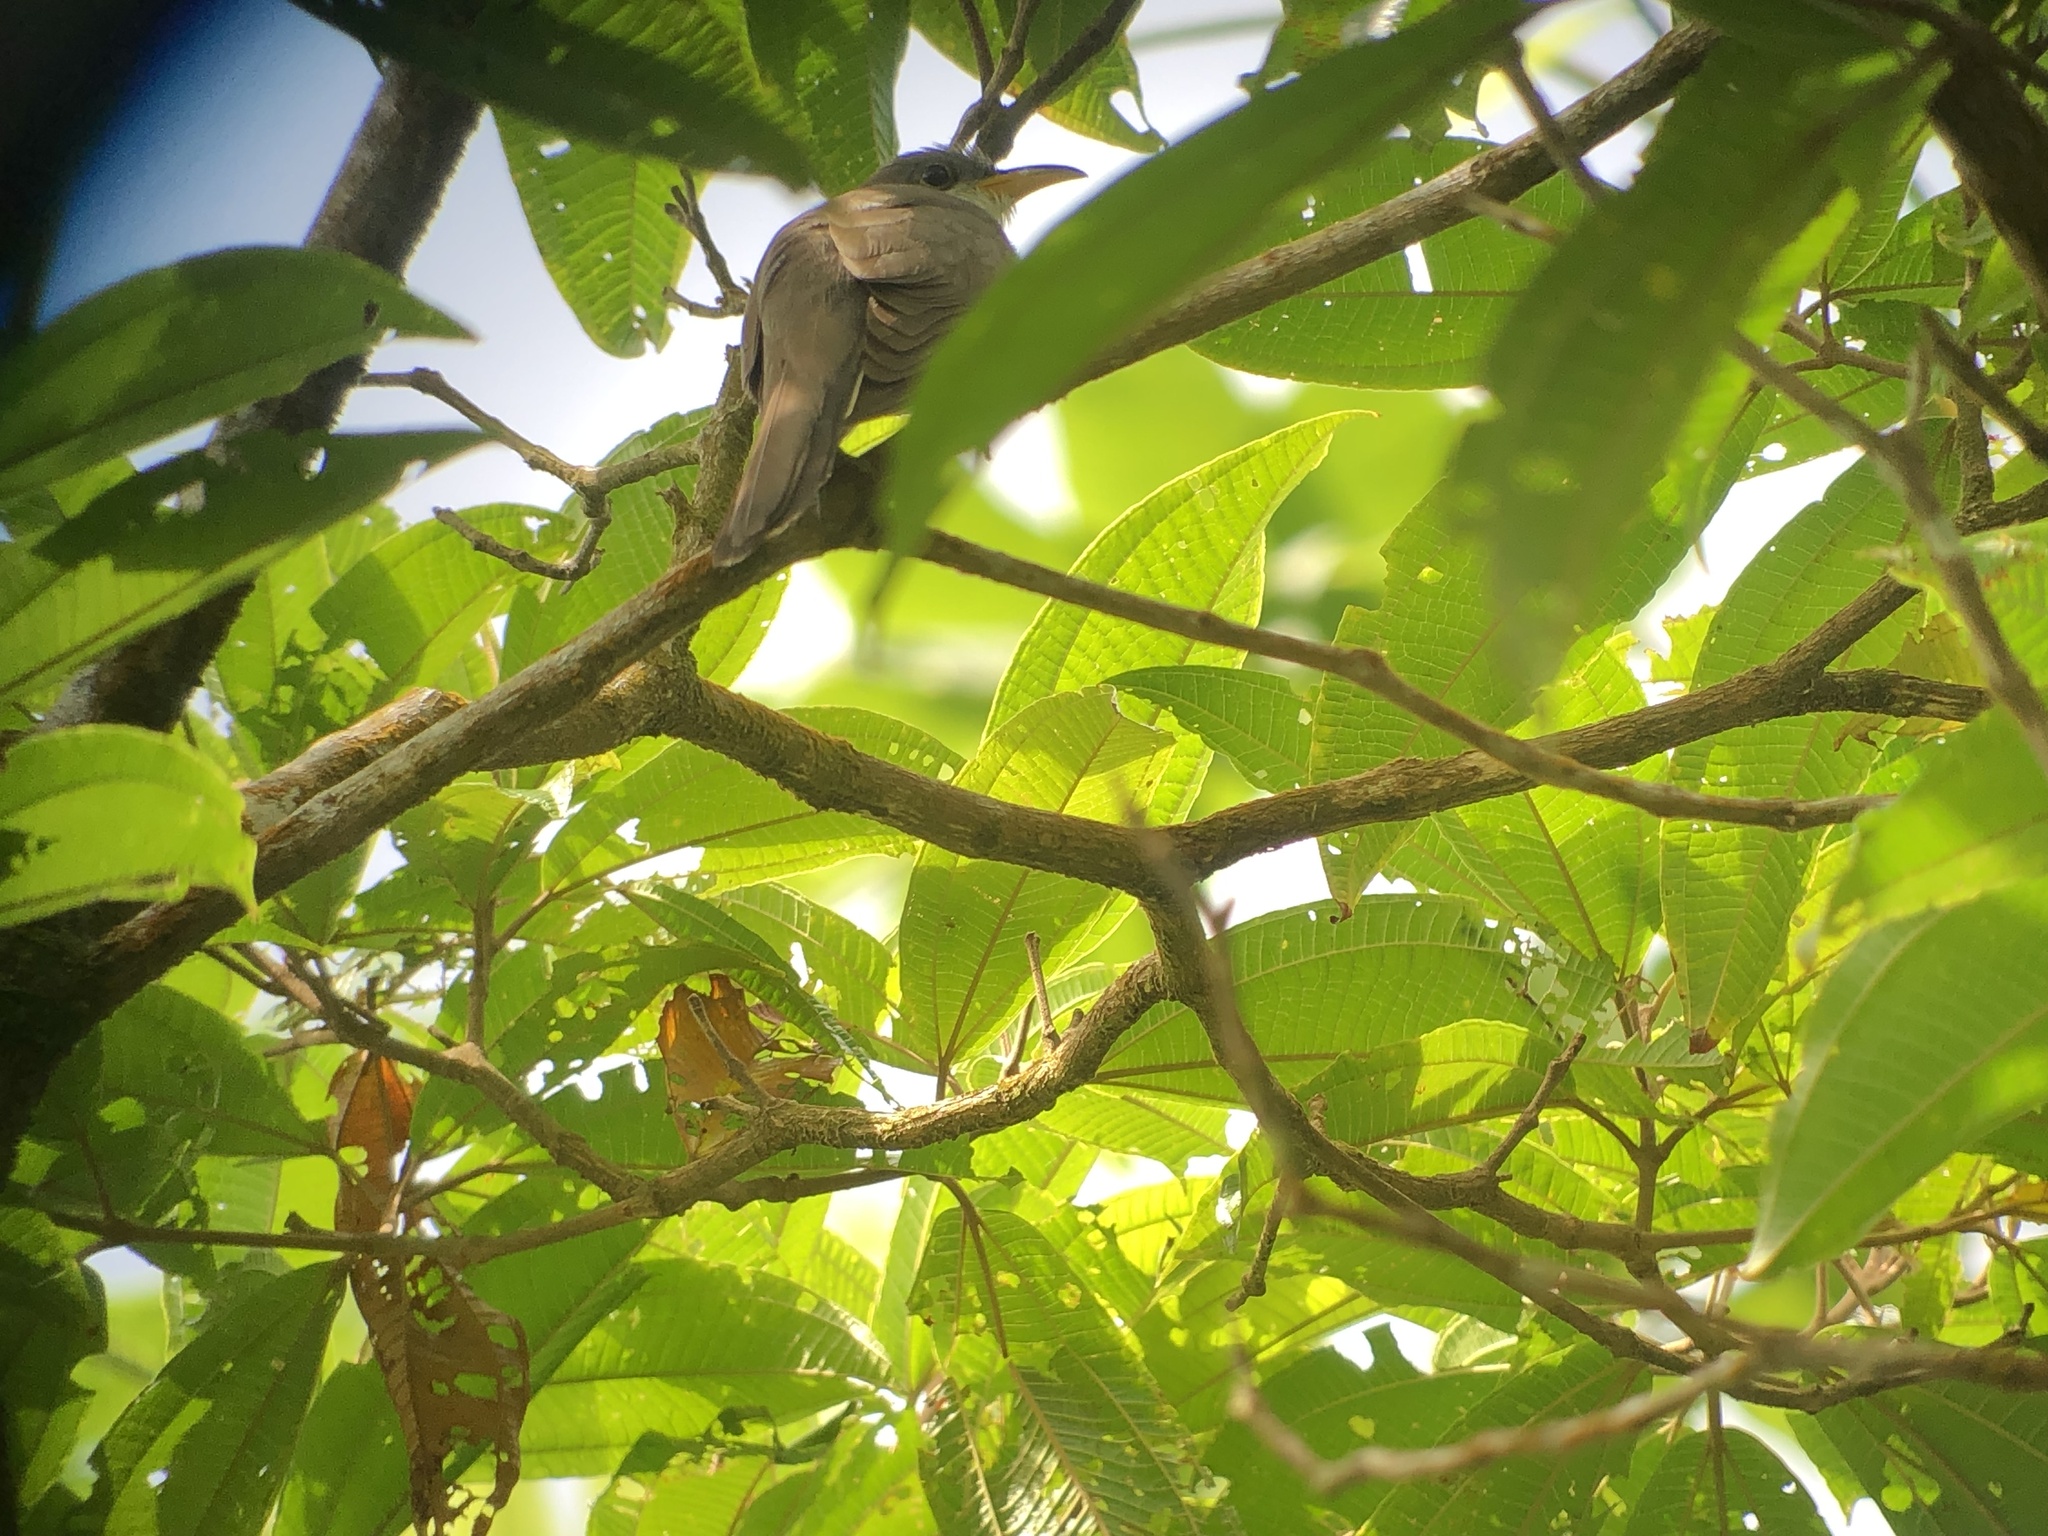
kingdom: Animalia
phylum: Chordata
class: Aves
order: Cuculiformes
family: Cuculidae
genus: Coccyzus
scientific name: Coccyzus euleri
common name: Pearly-breasted cuckoo
